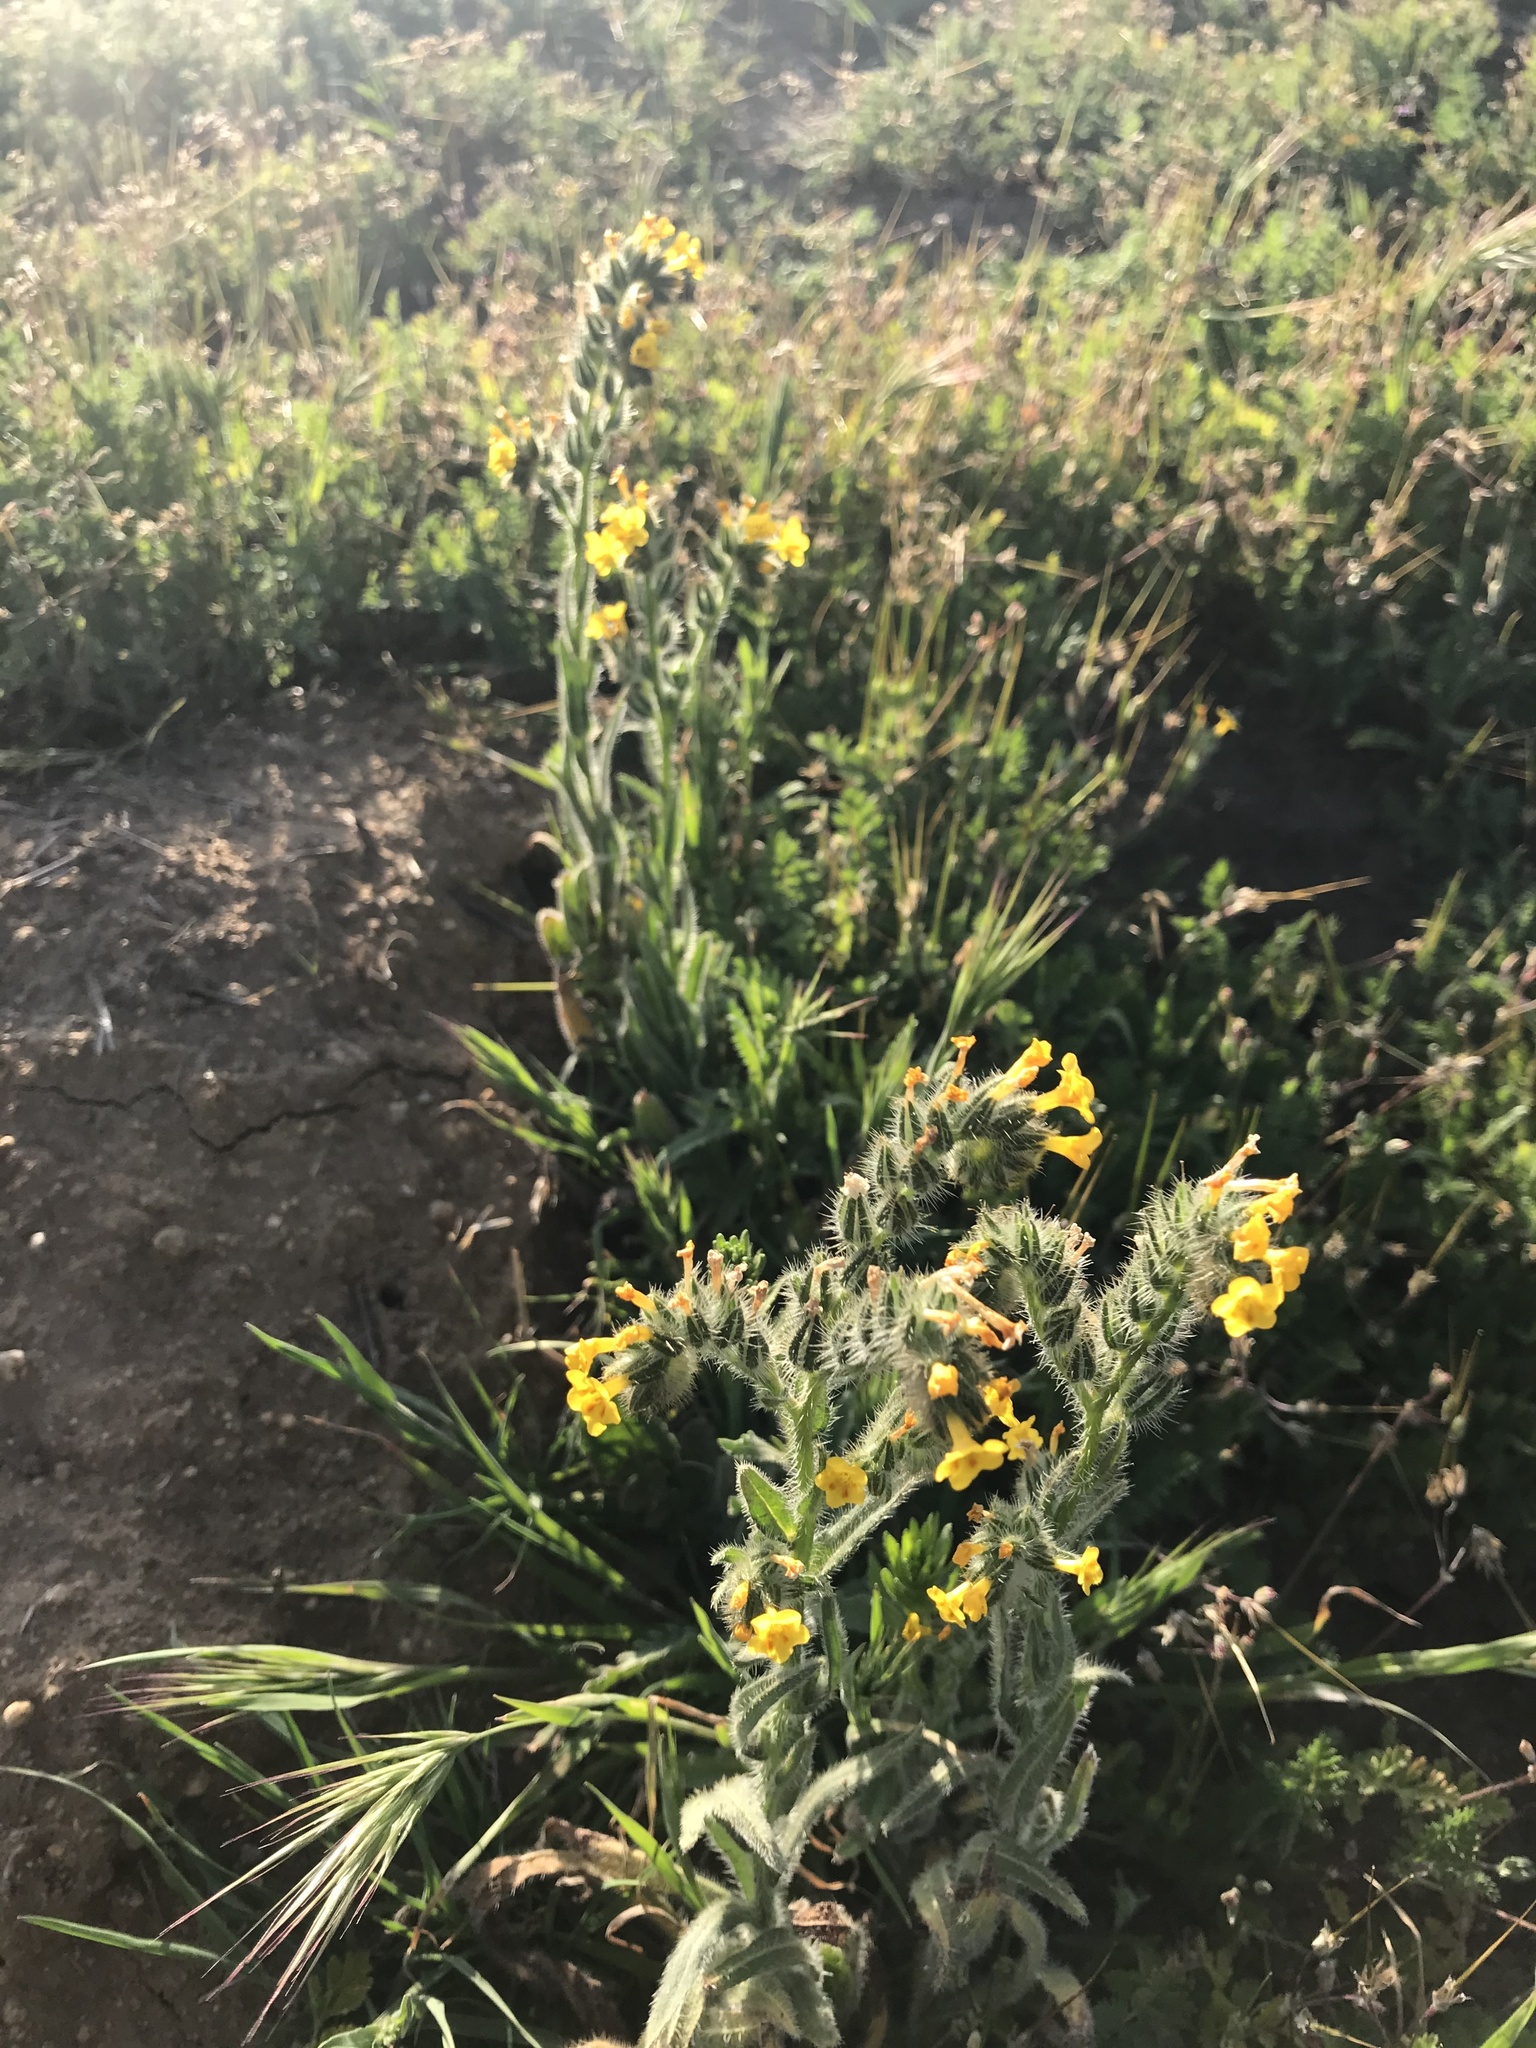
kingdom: Plantae
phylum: Tracheophyta
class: Magnoliopsida
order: Boraginales
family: Boraginaceae
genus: Amsinckia
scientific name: Amsinckia menziesii
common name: Menzies' fiddleneck
